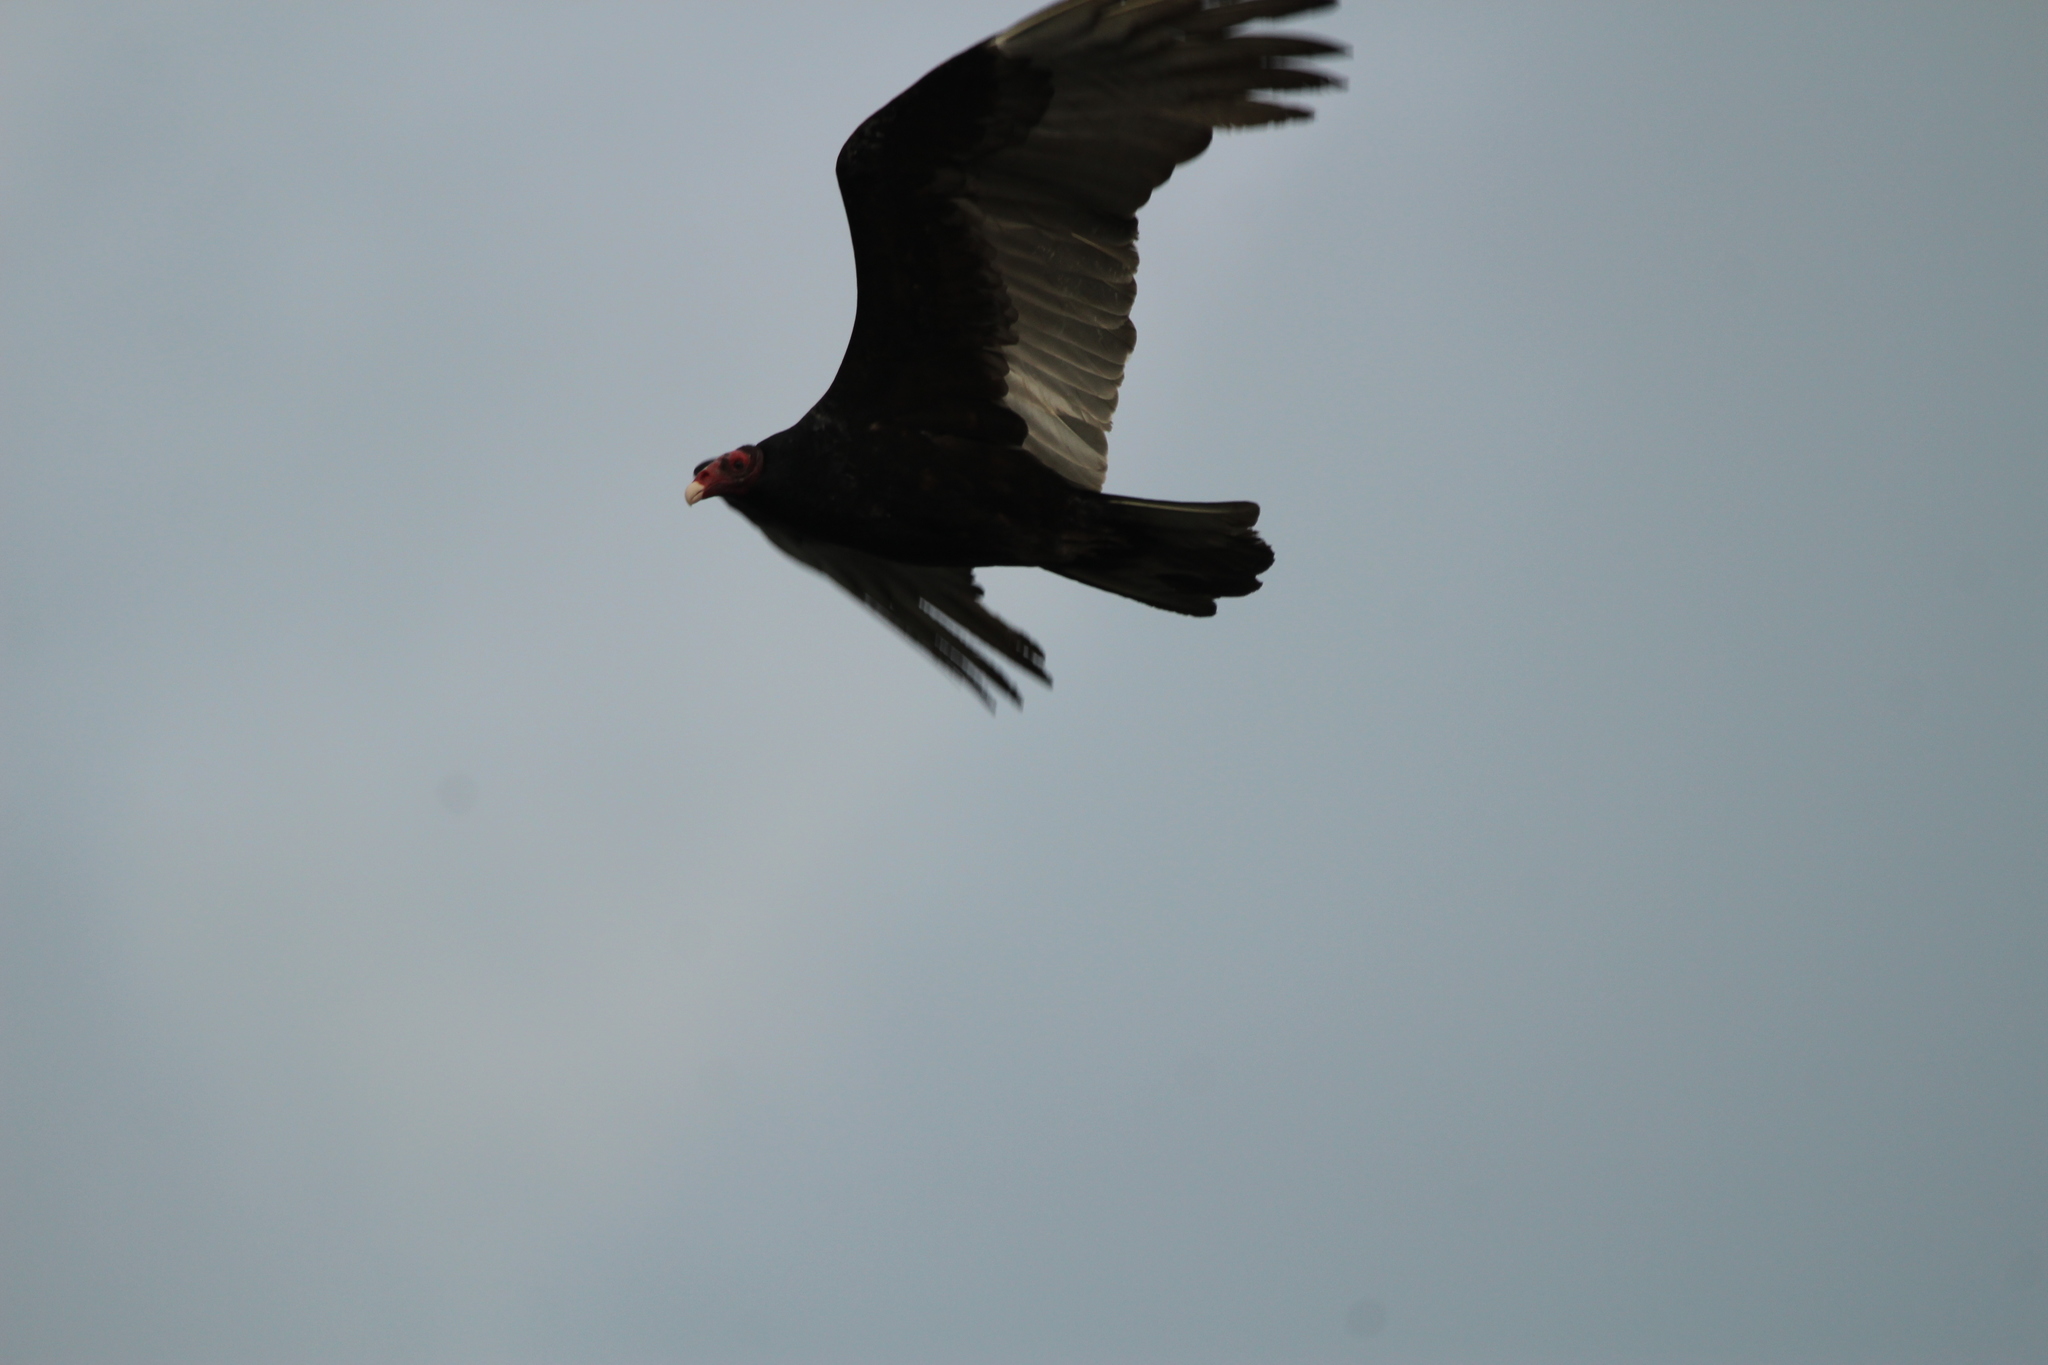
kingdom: Animalia
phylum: Chordata
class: Aves
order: Accipitriformes
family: Cathartidae
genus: Cathartes
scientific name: Cathartes aura
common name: Turkey vulture
